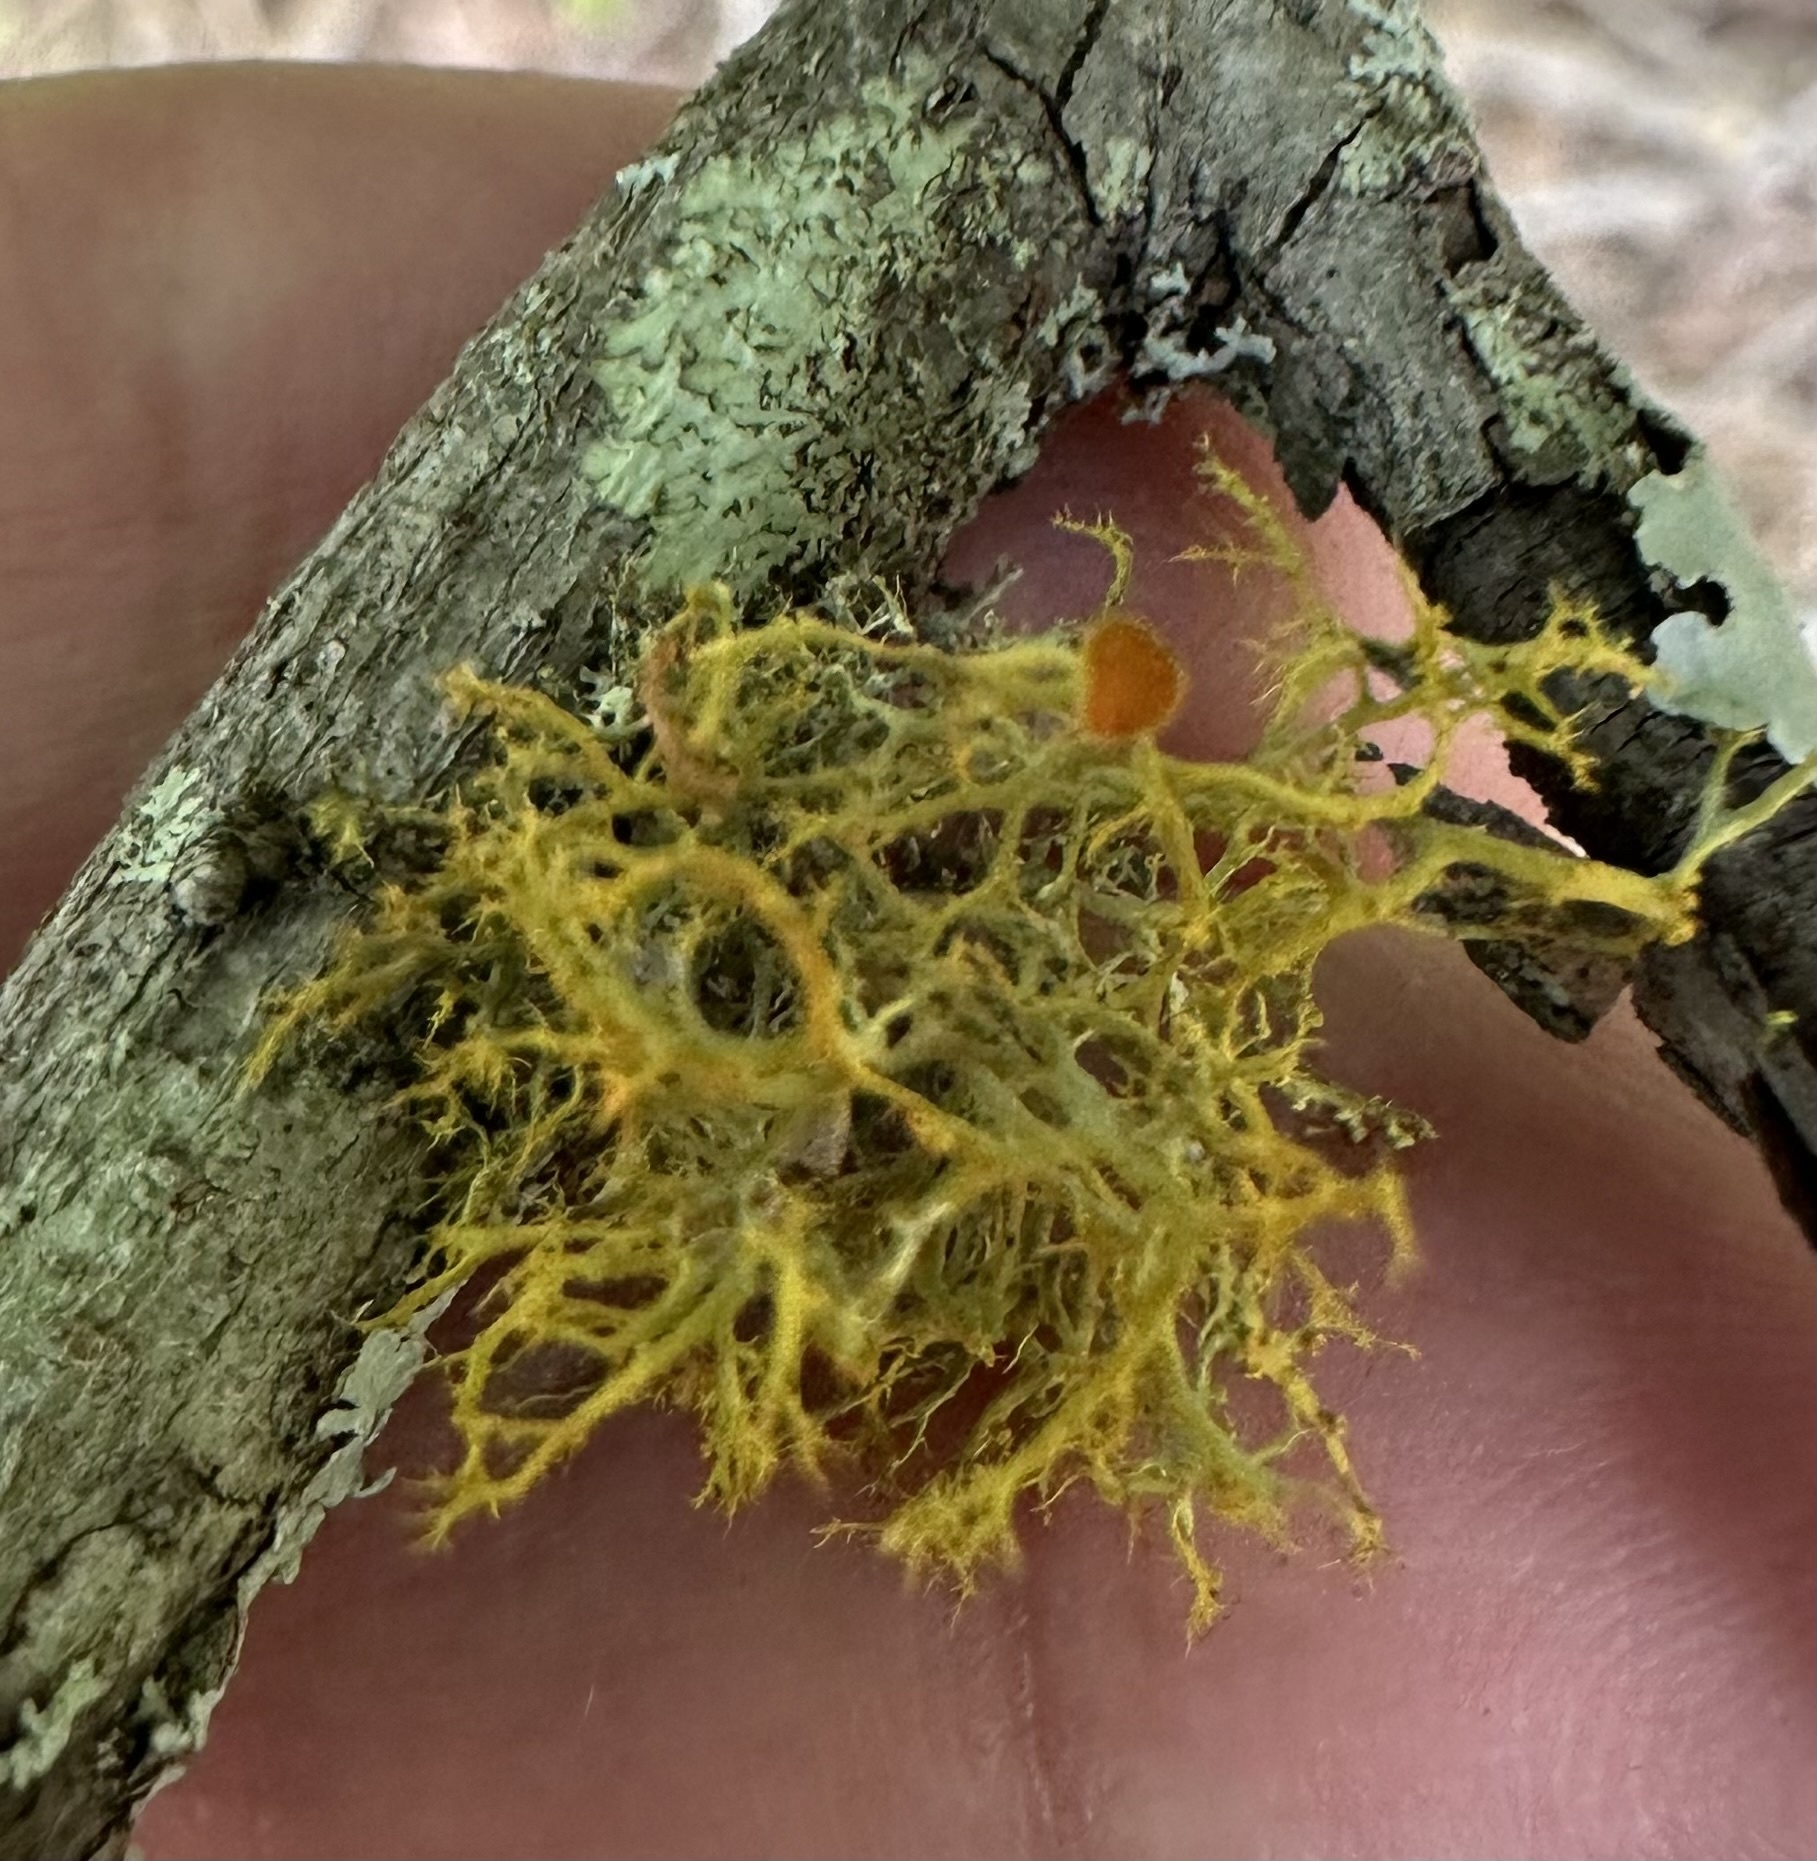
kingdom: Fungi
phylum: Ascomycota
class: Lecanoromycetes
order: Teloschistales
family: Teloschistaceae
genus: Teloschistes
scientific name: Teloschistes exilis
